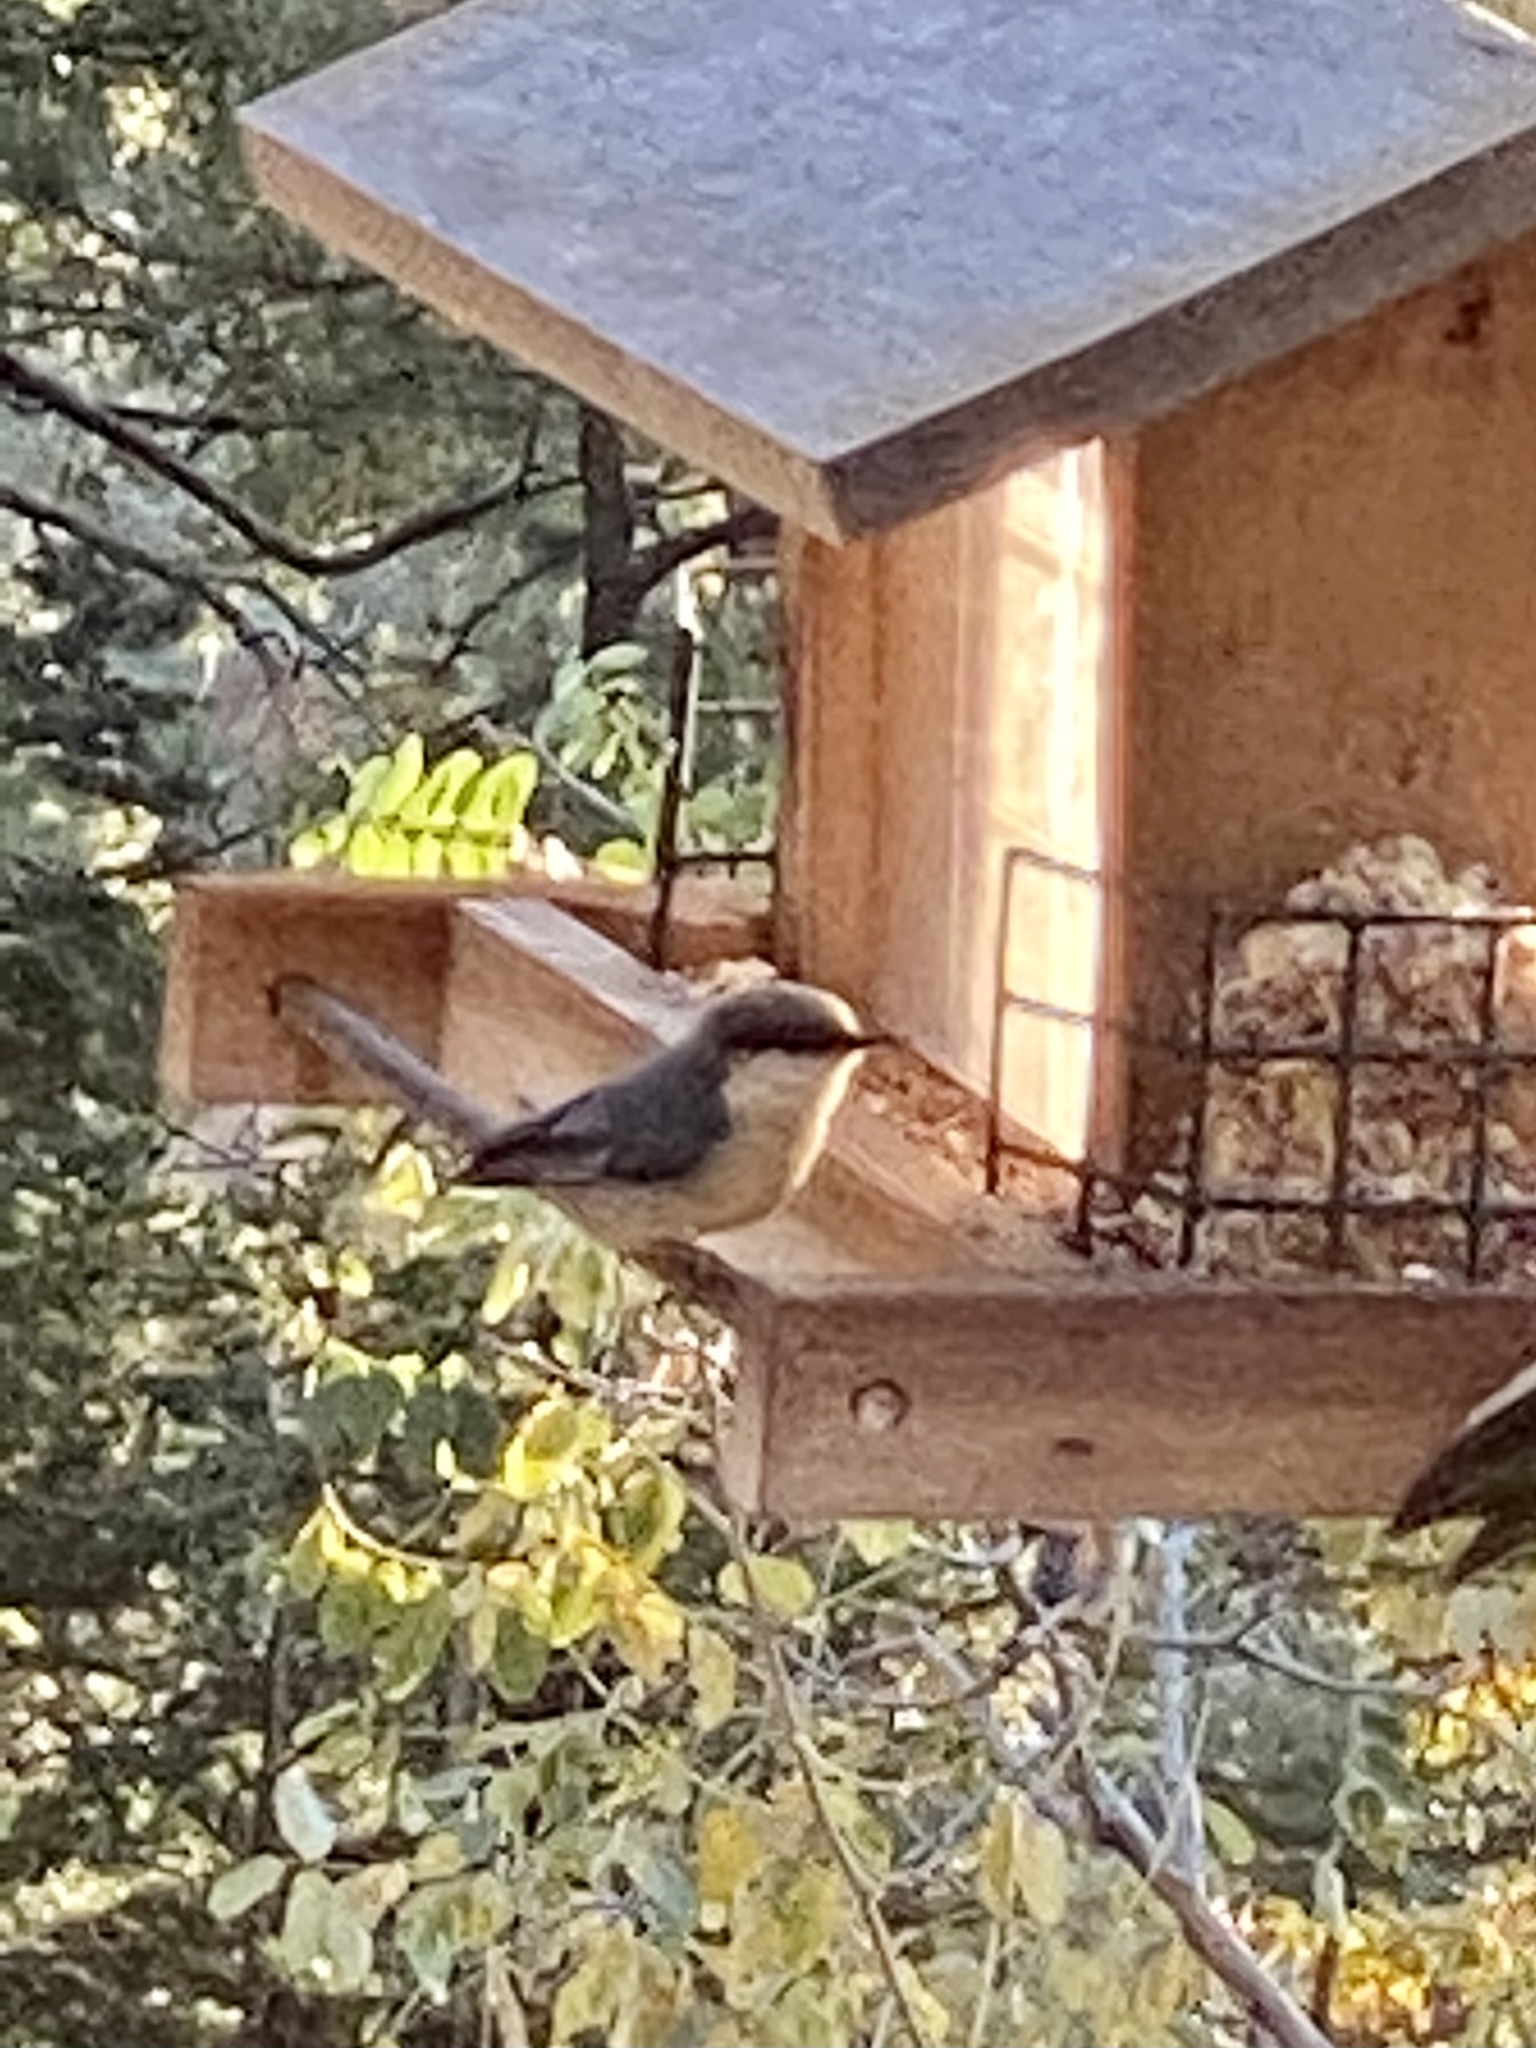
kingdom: Animalia
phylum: Chordata
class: Aves
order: Passeriformes
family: Sittidae
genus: Sitta
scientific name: Sitta pygmaea
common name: Pygmy nuthatch
